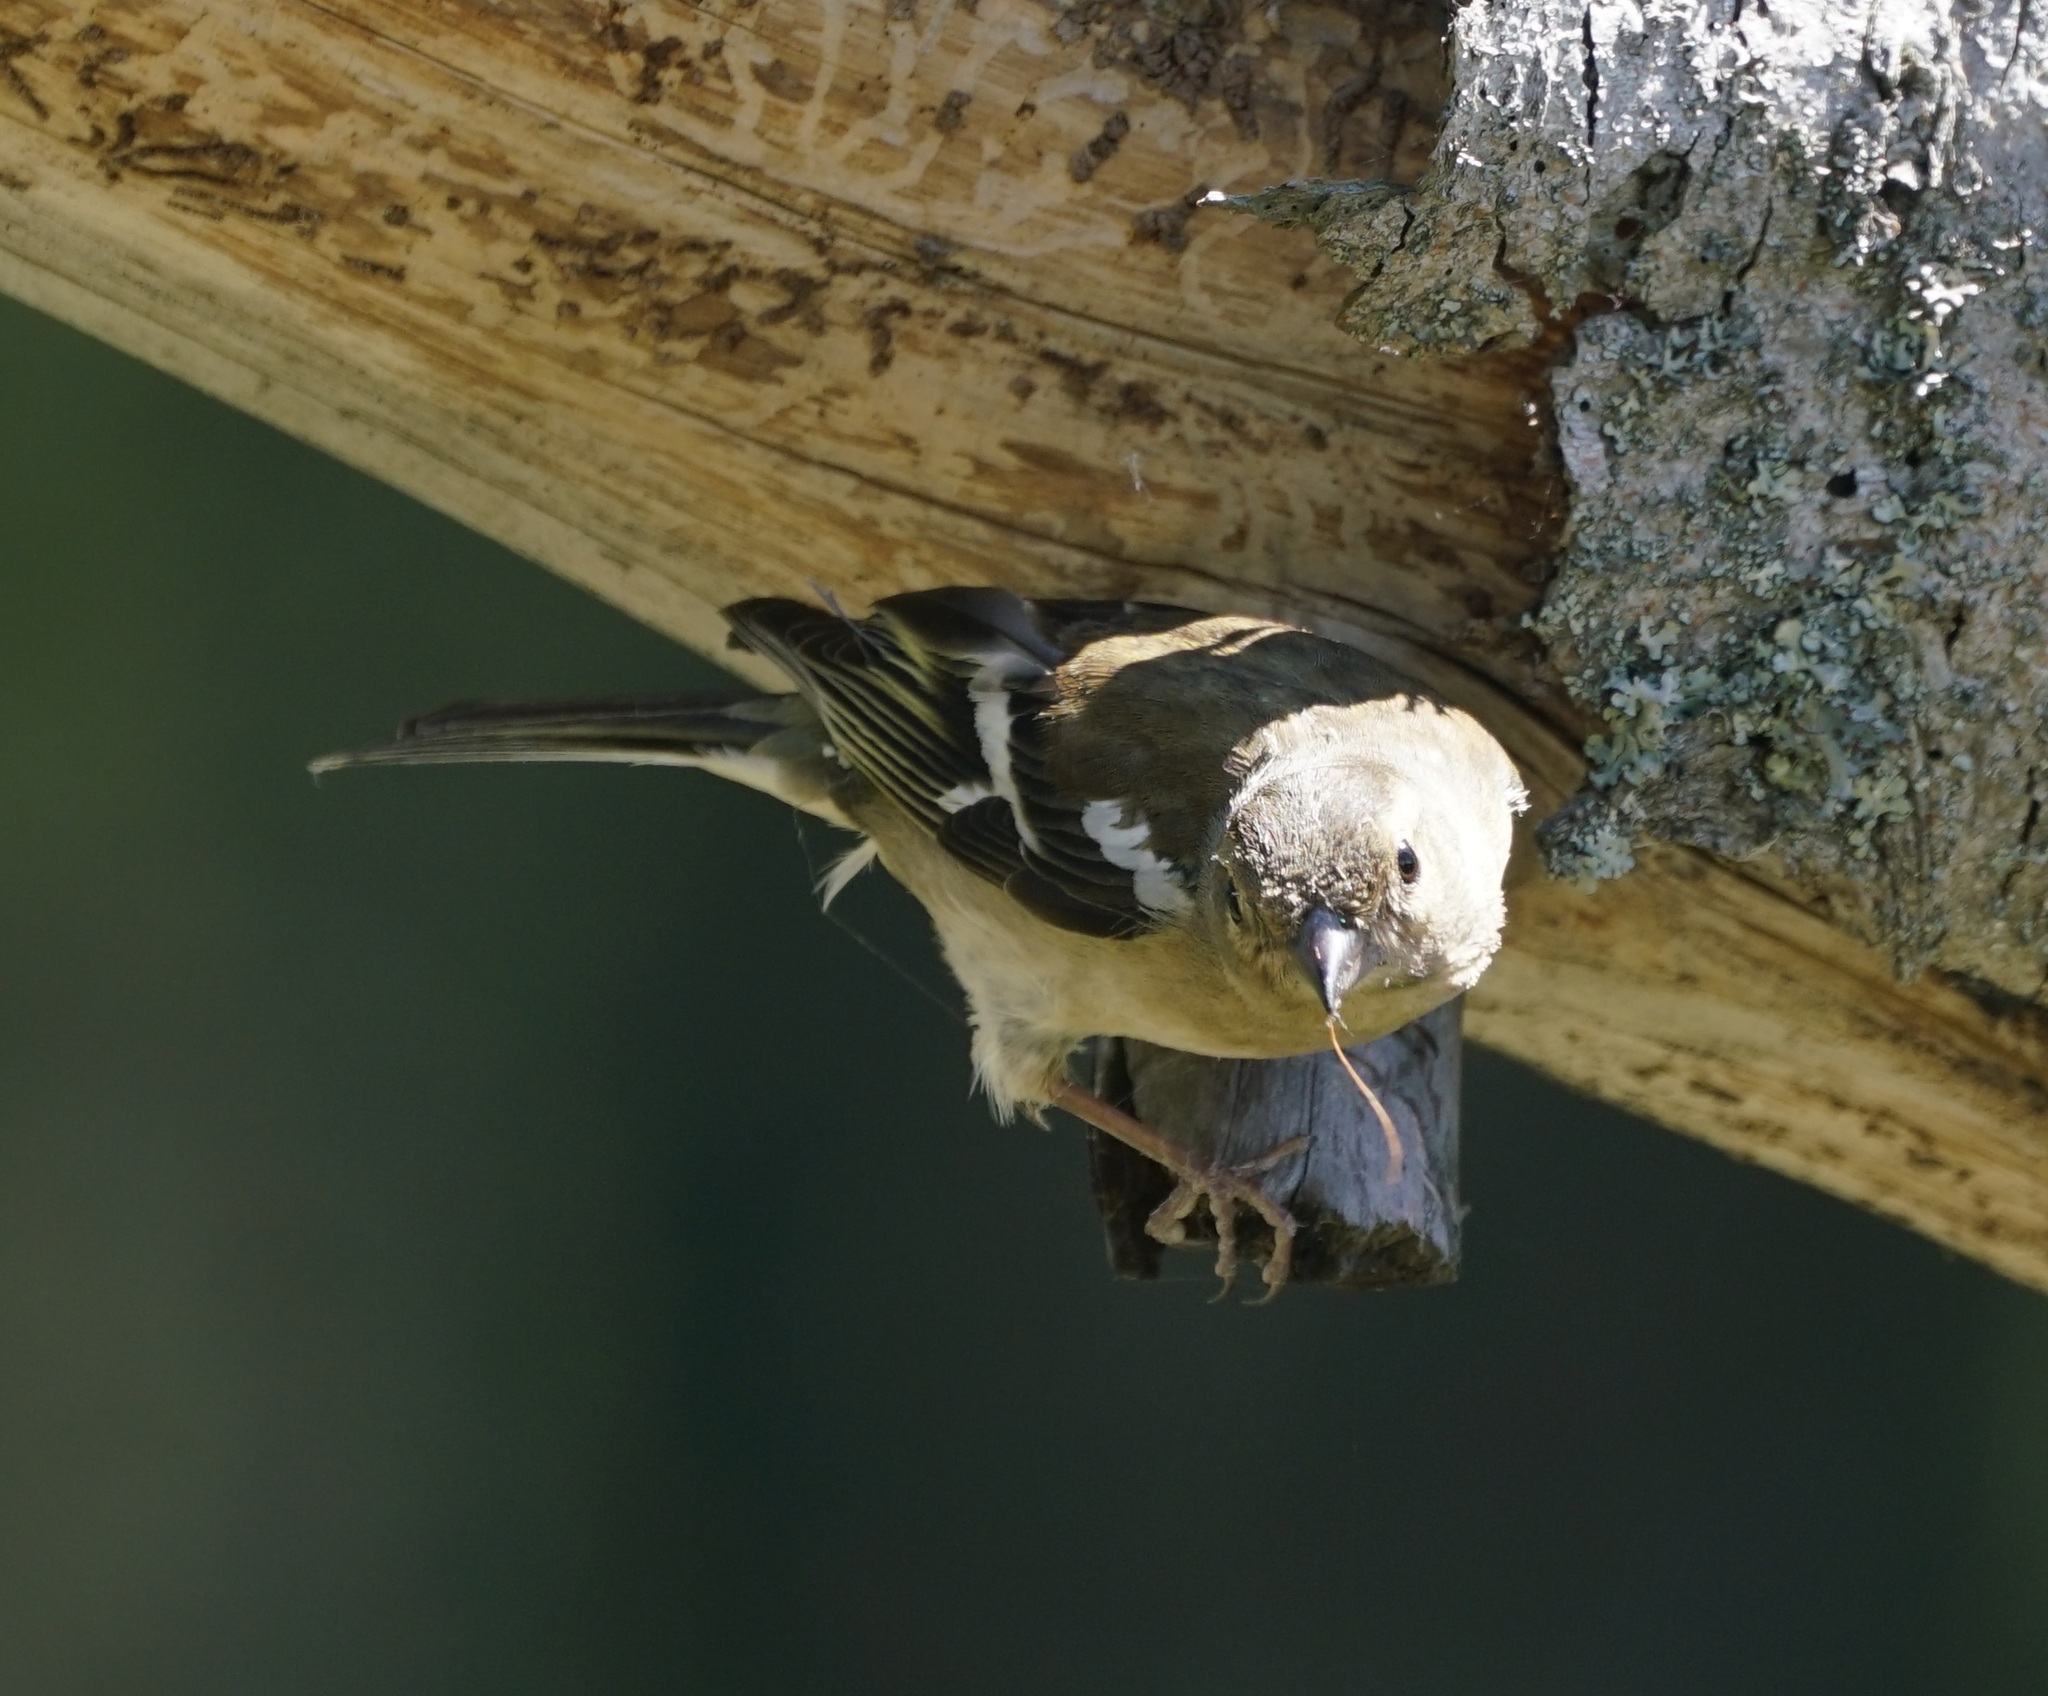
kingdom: Animalia
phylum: Chordata
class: Aves
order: Passeriformes
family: Fringillidae
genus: Fringilla
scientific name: Fringilla coelebs
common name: Common chaffinch
